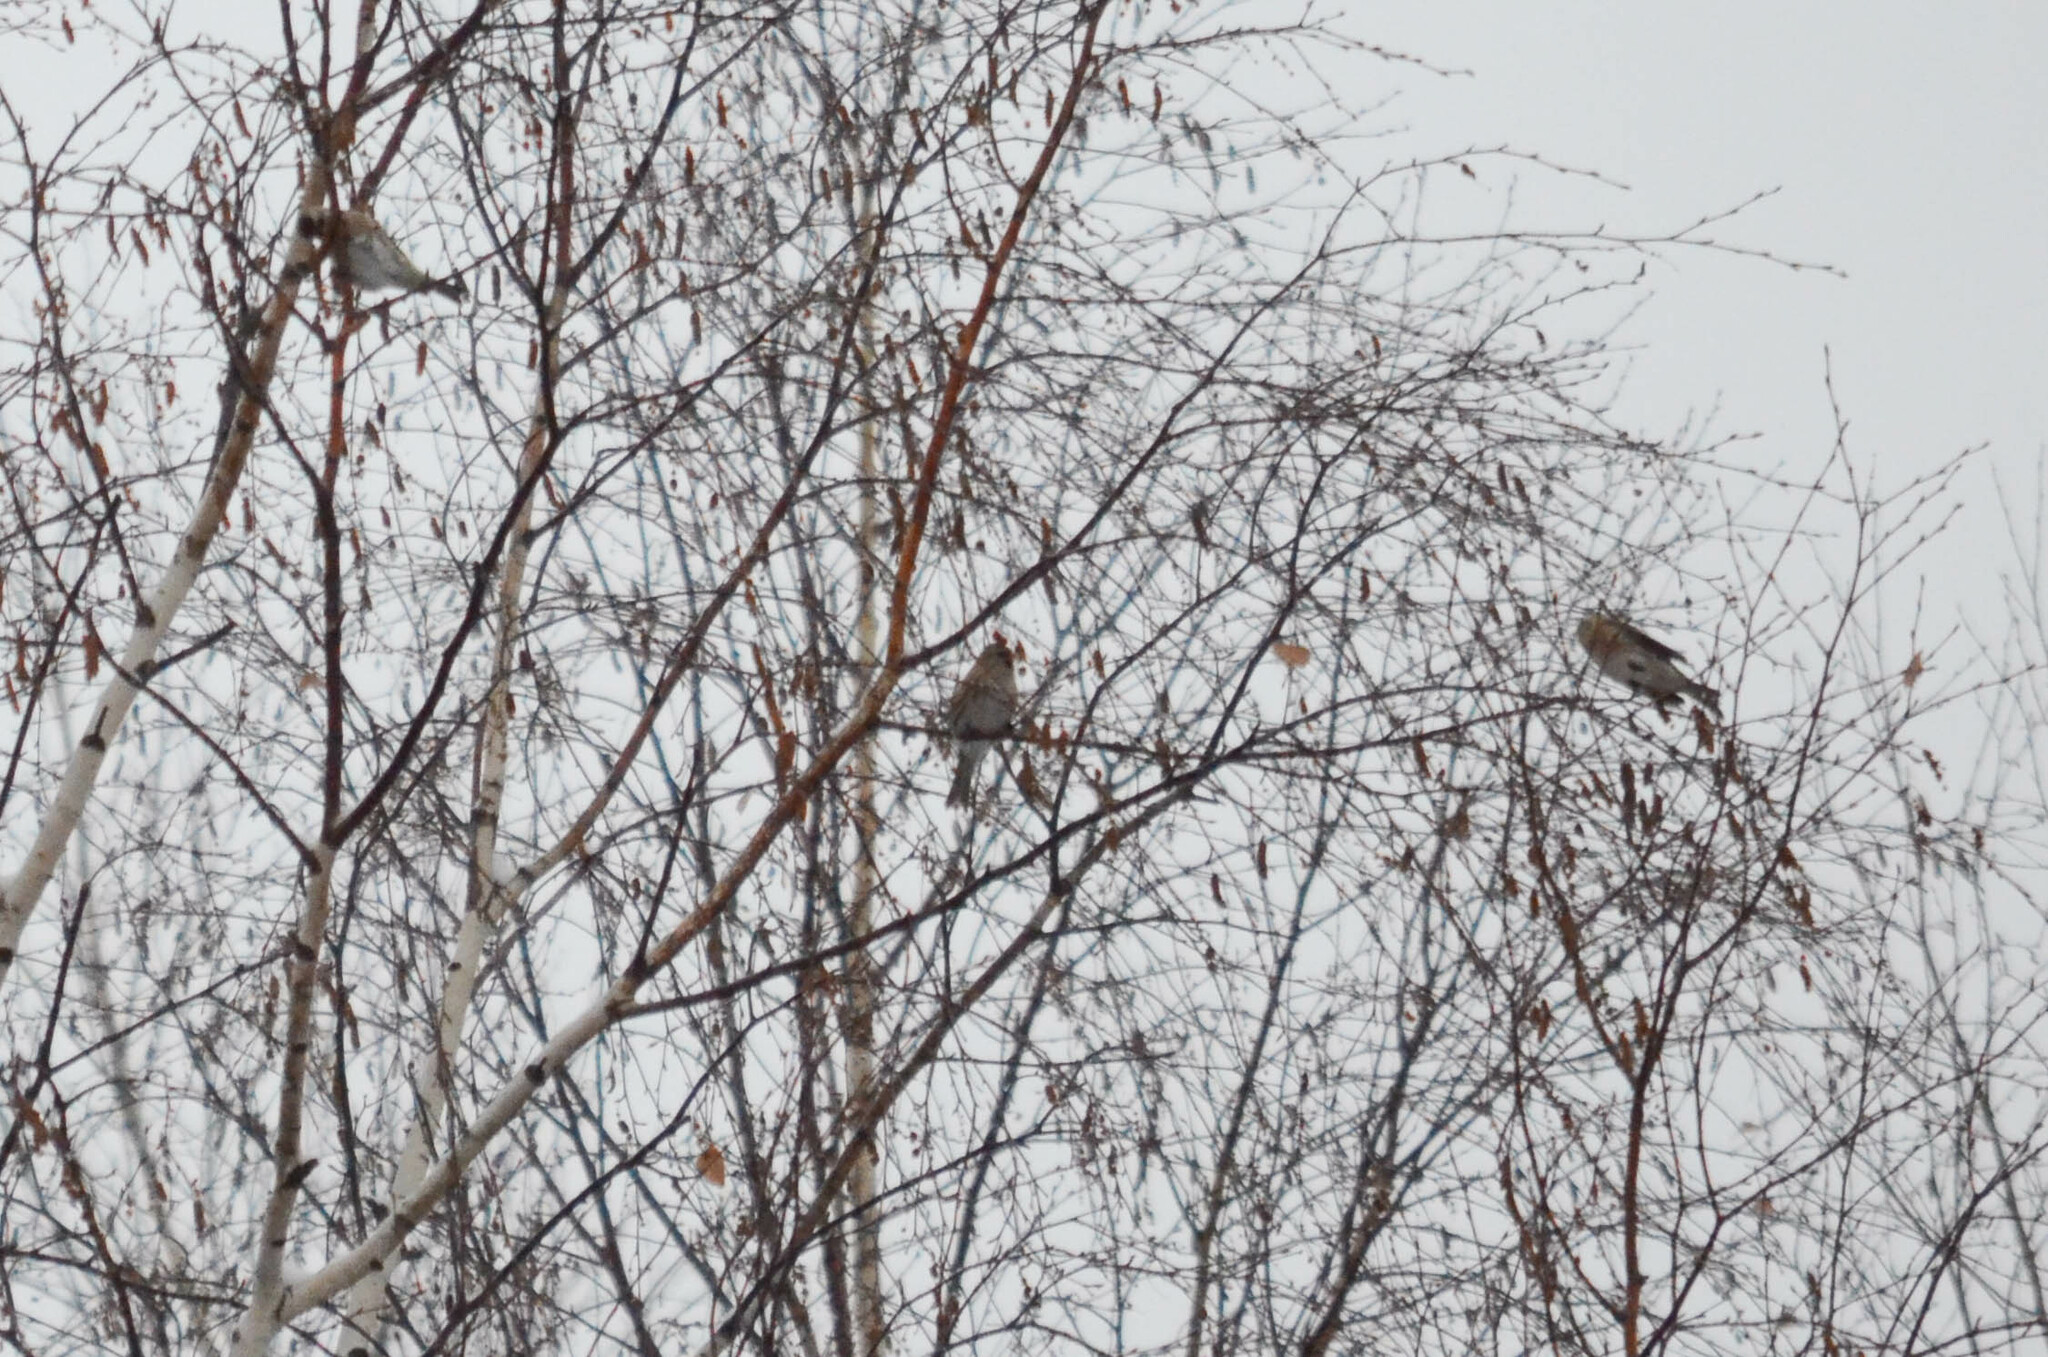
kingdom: Animalia
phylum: Chordata
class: Aves
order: Passeriformes
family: Fringillidae
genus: Acanthis
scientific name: Acanthis flammea
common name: Common redpoll
